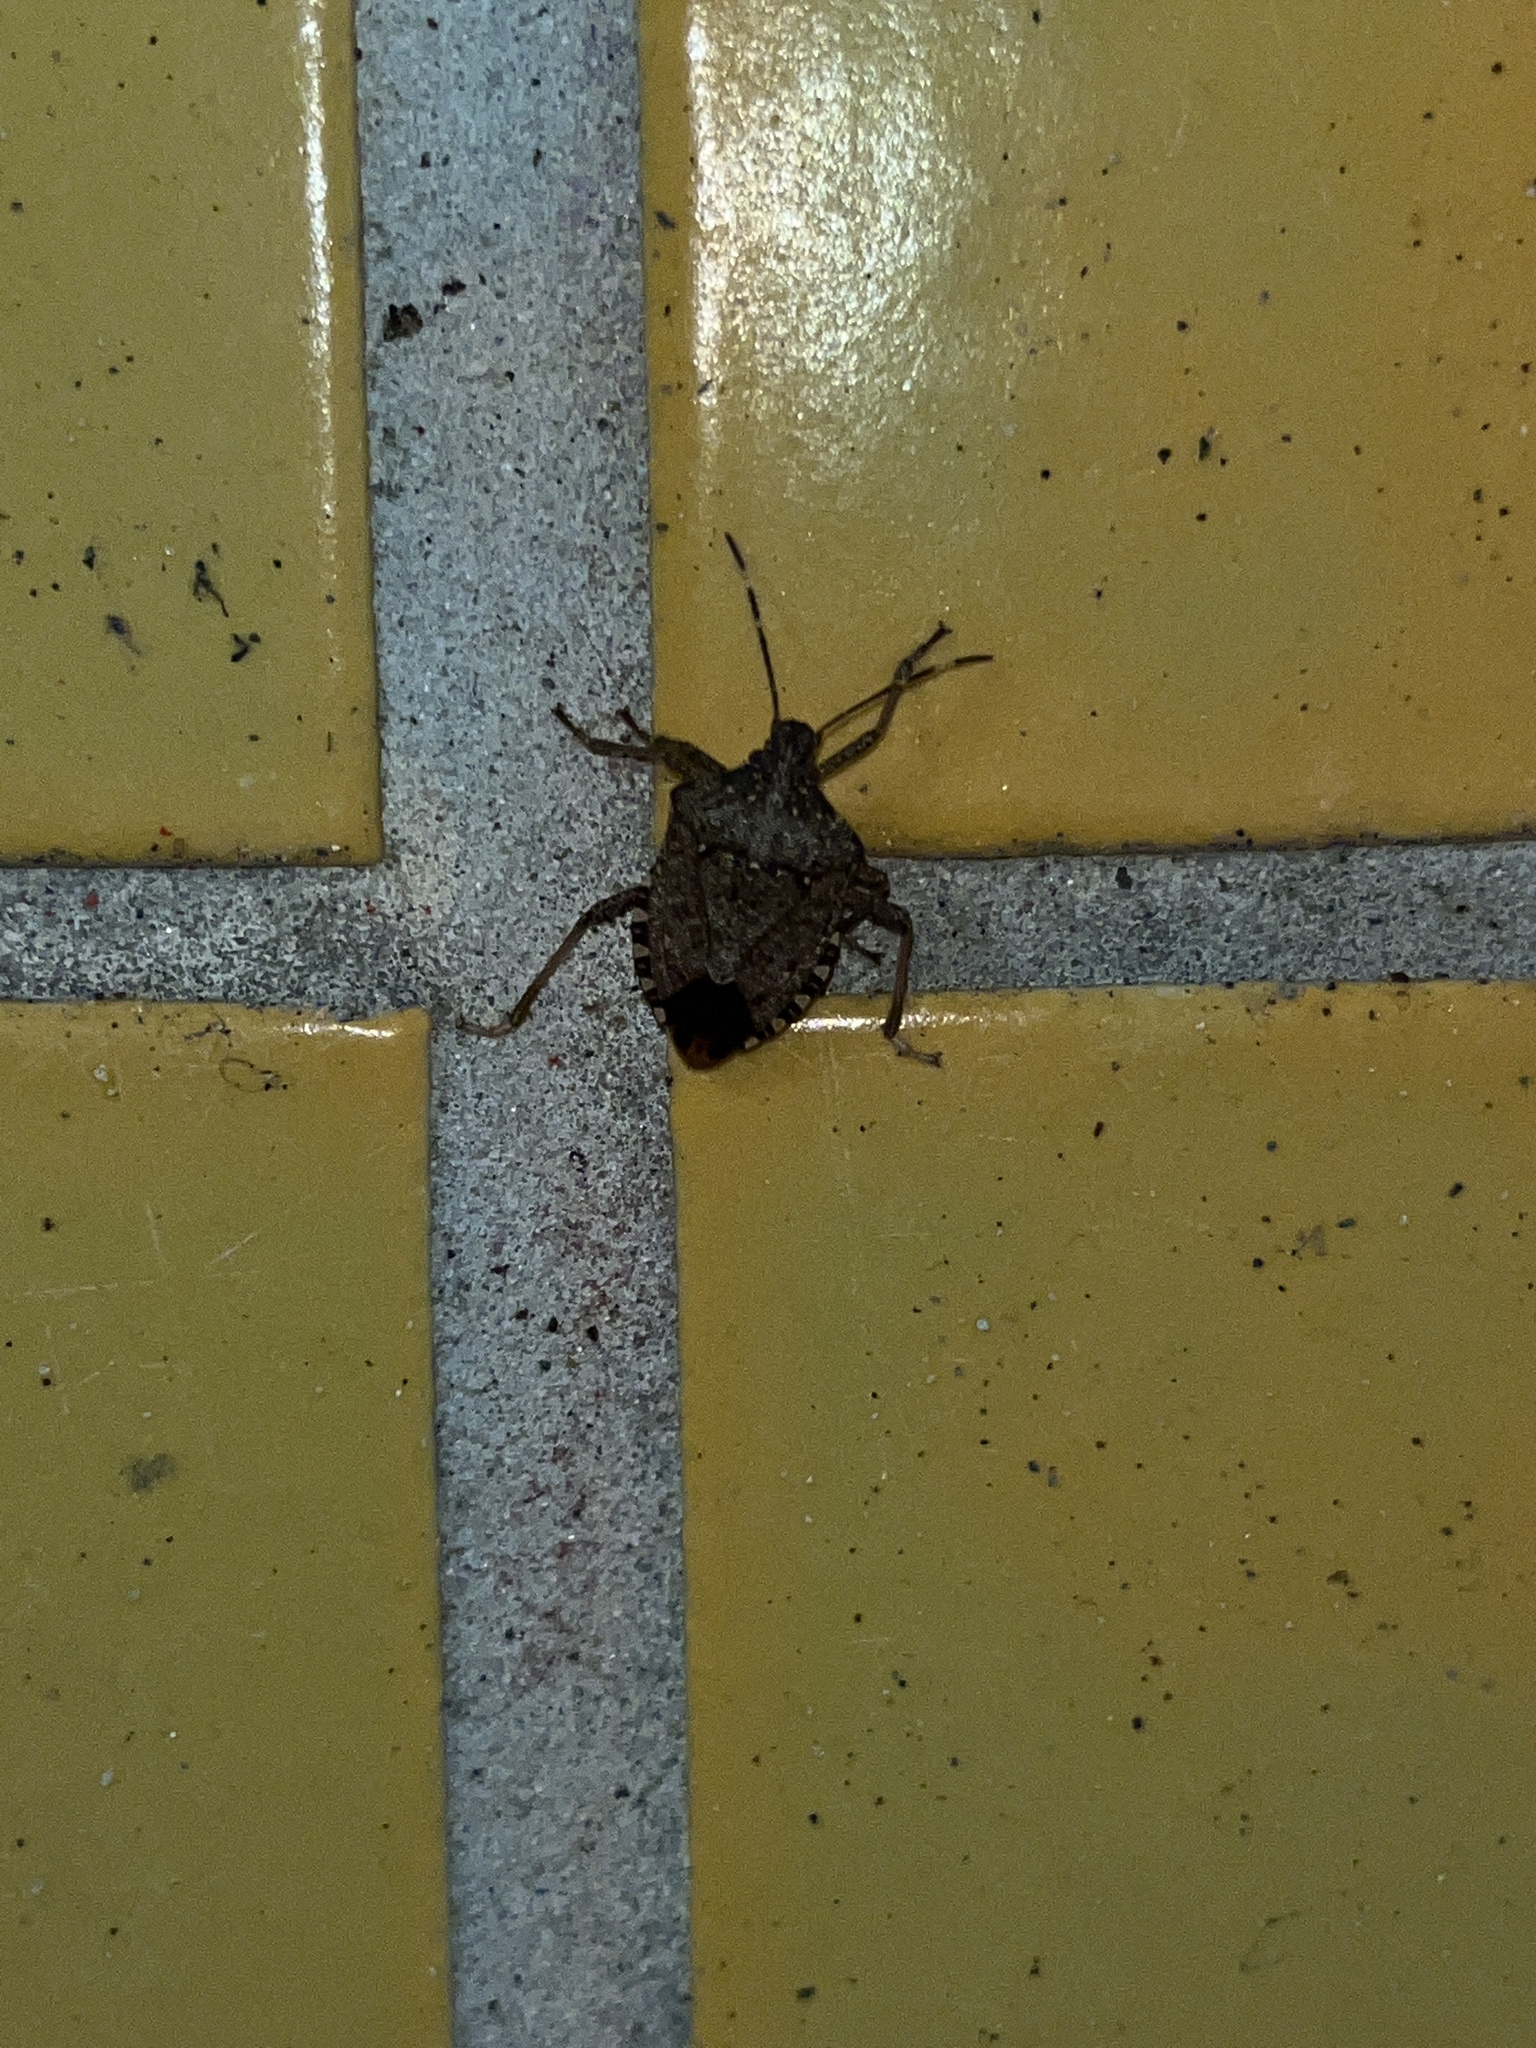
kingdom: Animalia
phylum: Arthropoda
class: Insecta
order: Hemiptera
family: Pentatomidae
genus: Halyomorpha
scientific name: Halyomorpha halys
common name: Brown marmorated stink bug
